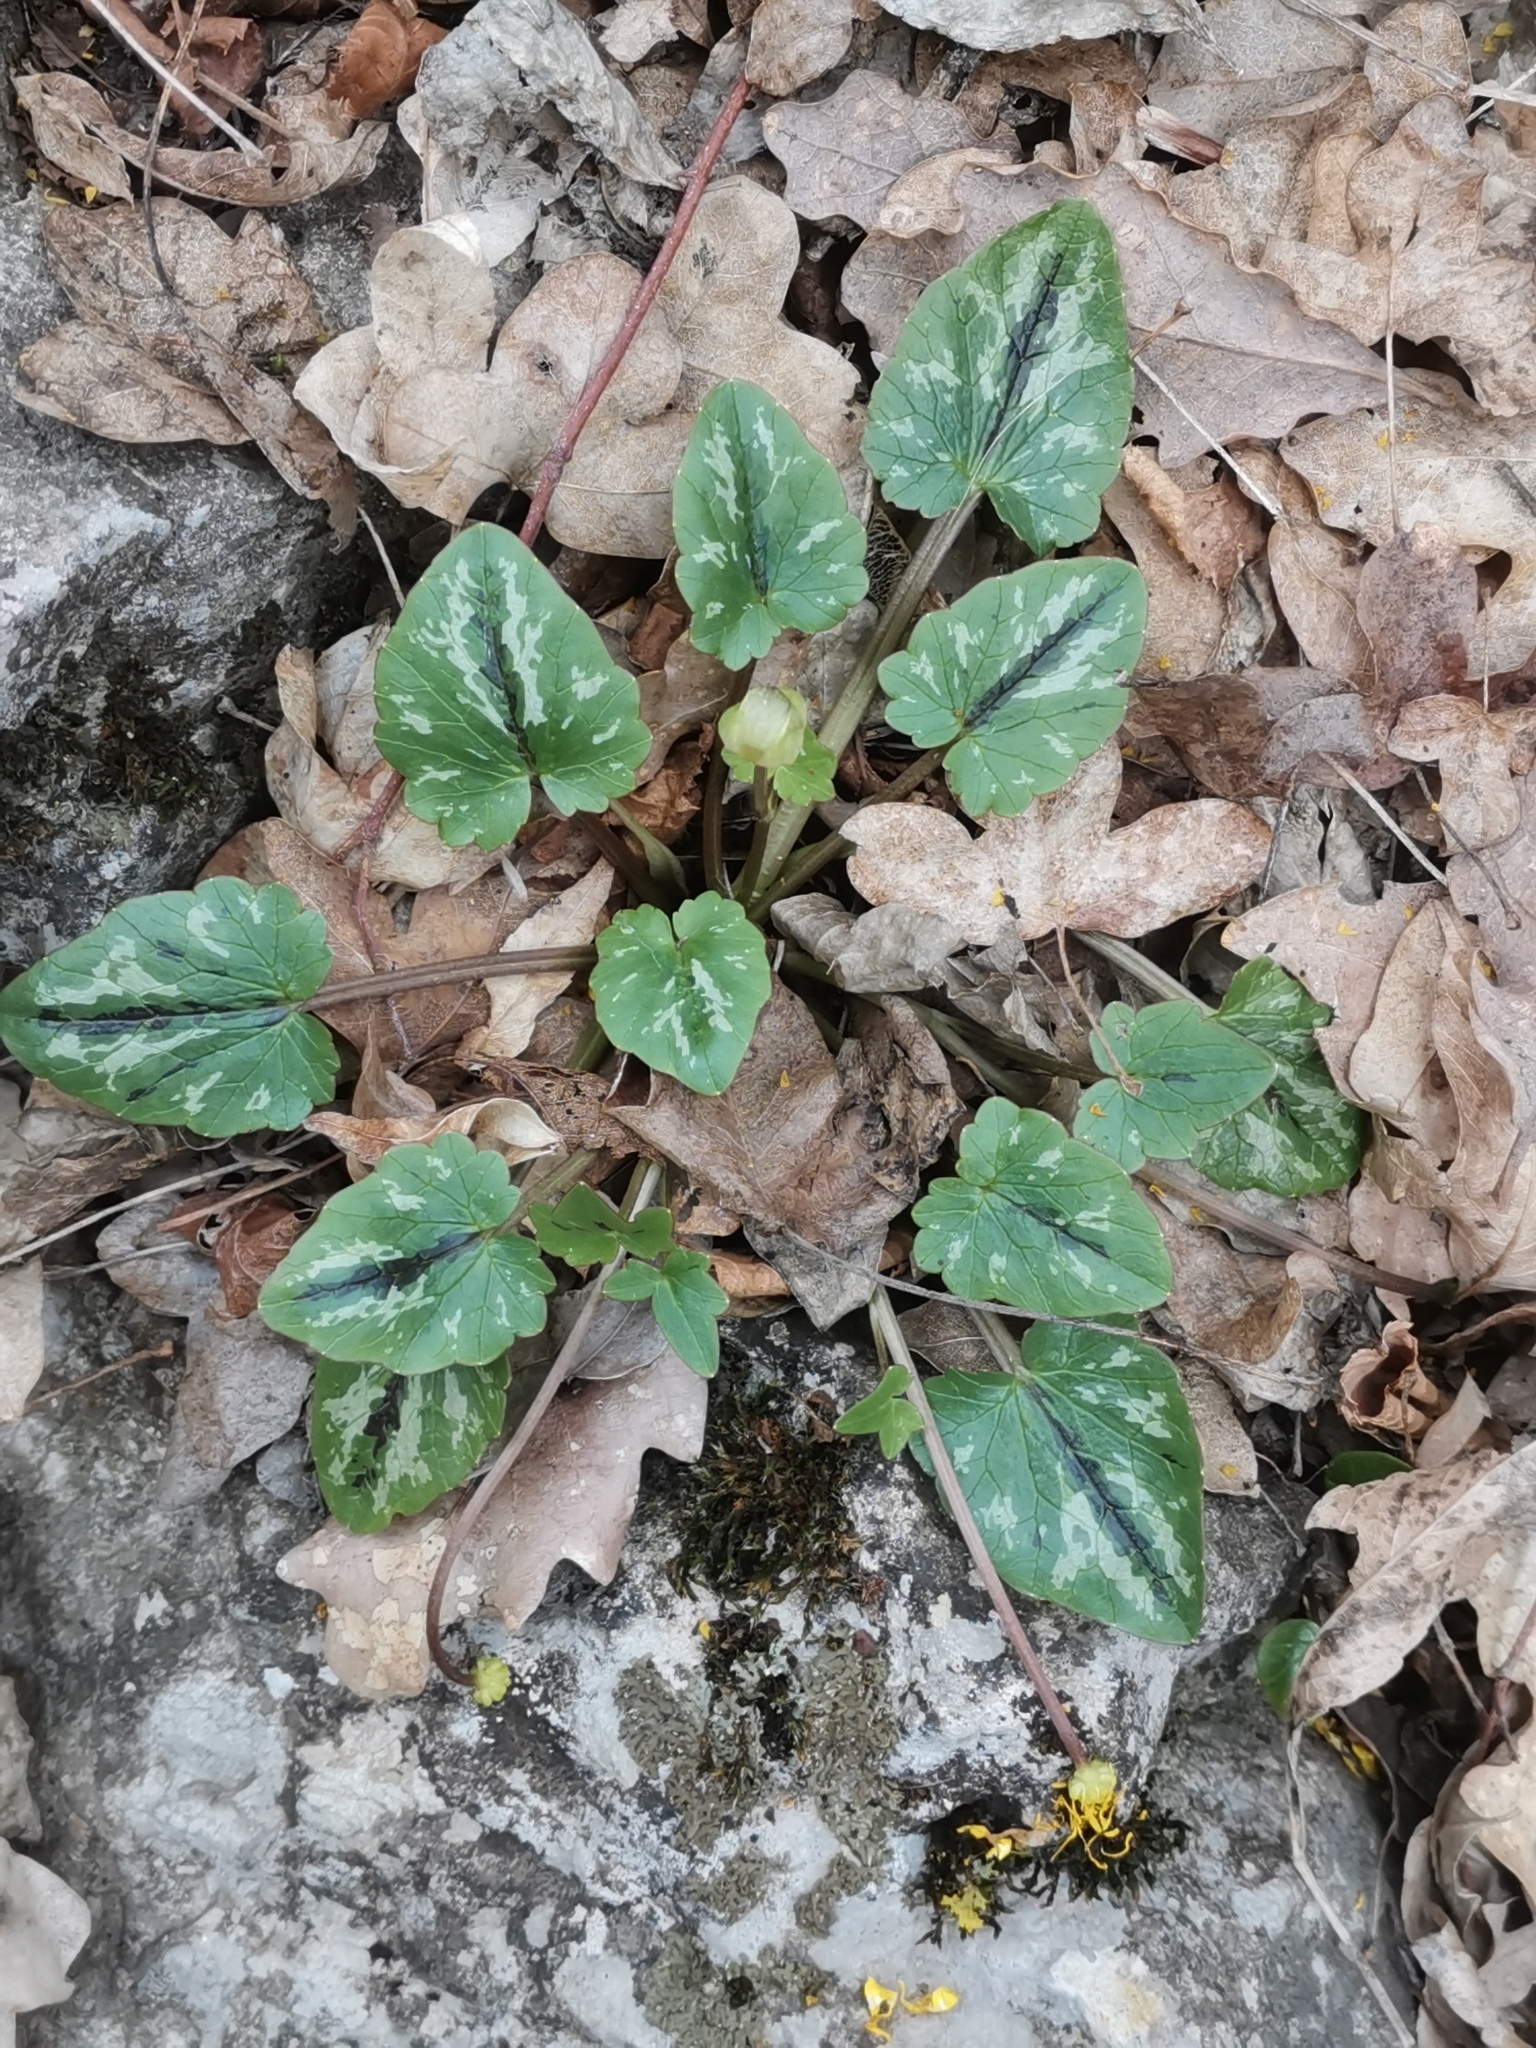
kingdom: Plantae
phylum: Tracheophyta
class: Magnoliopsida
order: Ranunculales
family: Ranunculaceae
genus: Ficaria
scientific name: Ficaria verna
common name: Lesser celandine
